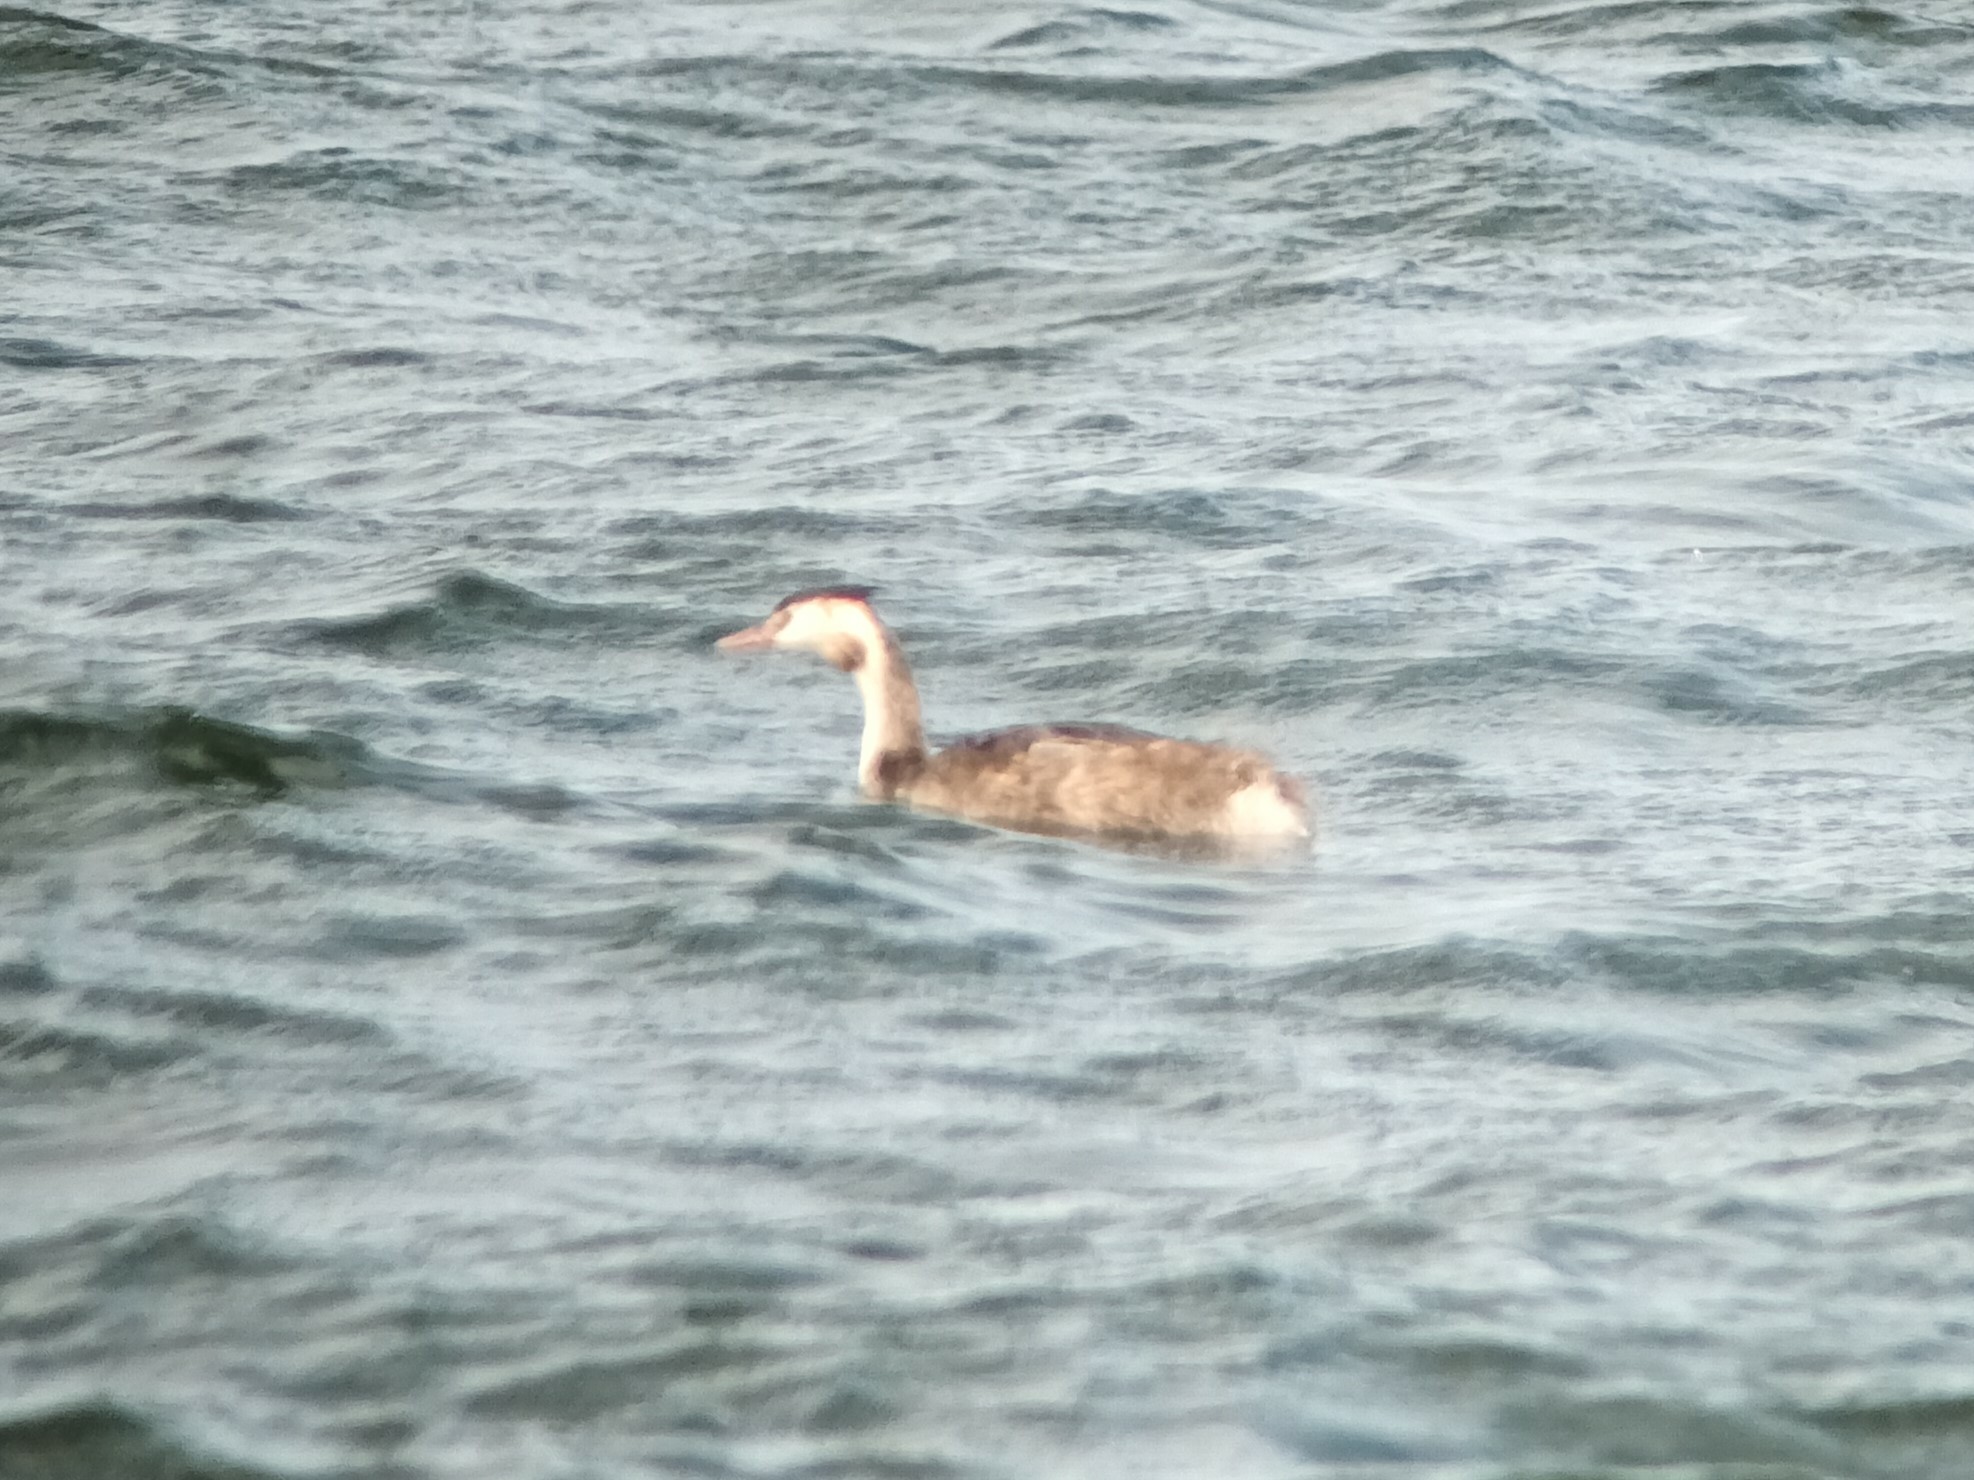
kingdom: Animalia
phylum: Chordata
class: Aves
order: Podicipediformes
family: Podicipedidae
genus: Podiceps
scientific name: Podiceps cristatus
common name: Great crested grebe
